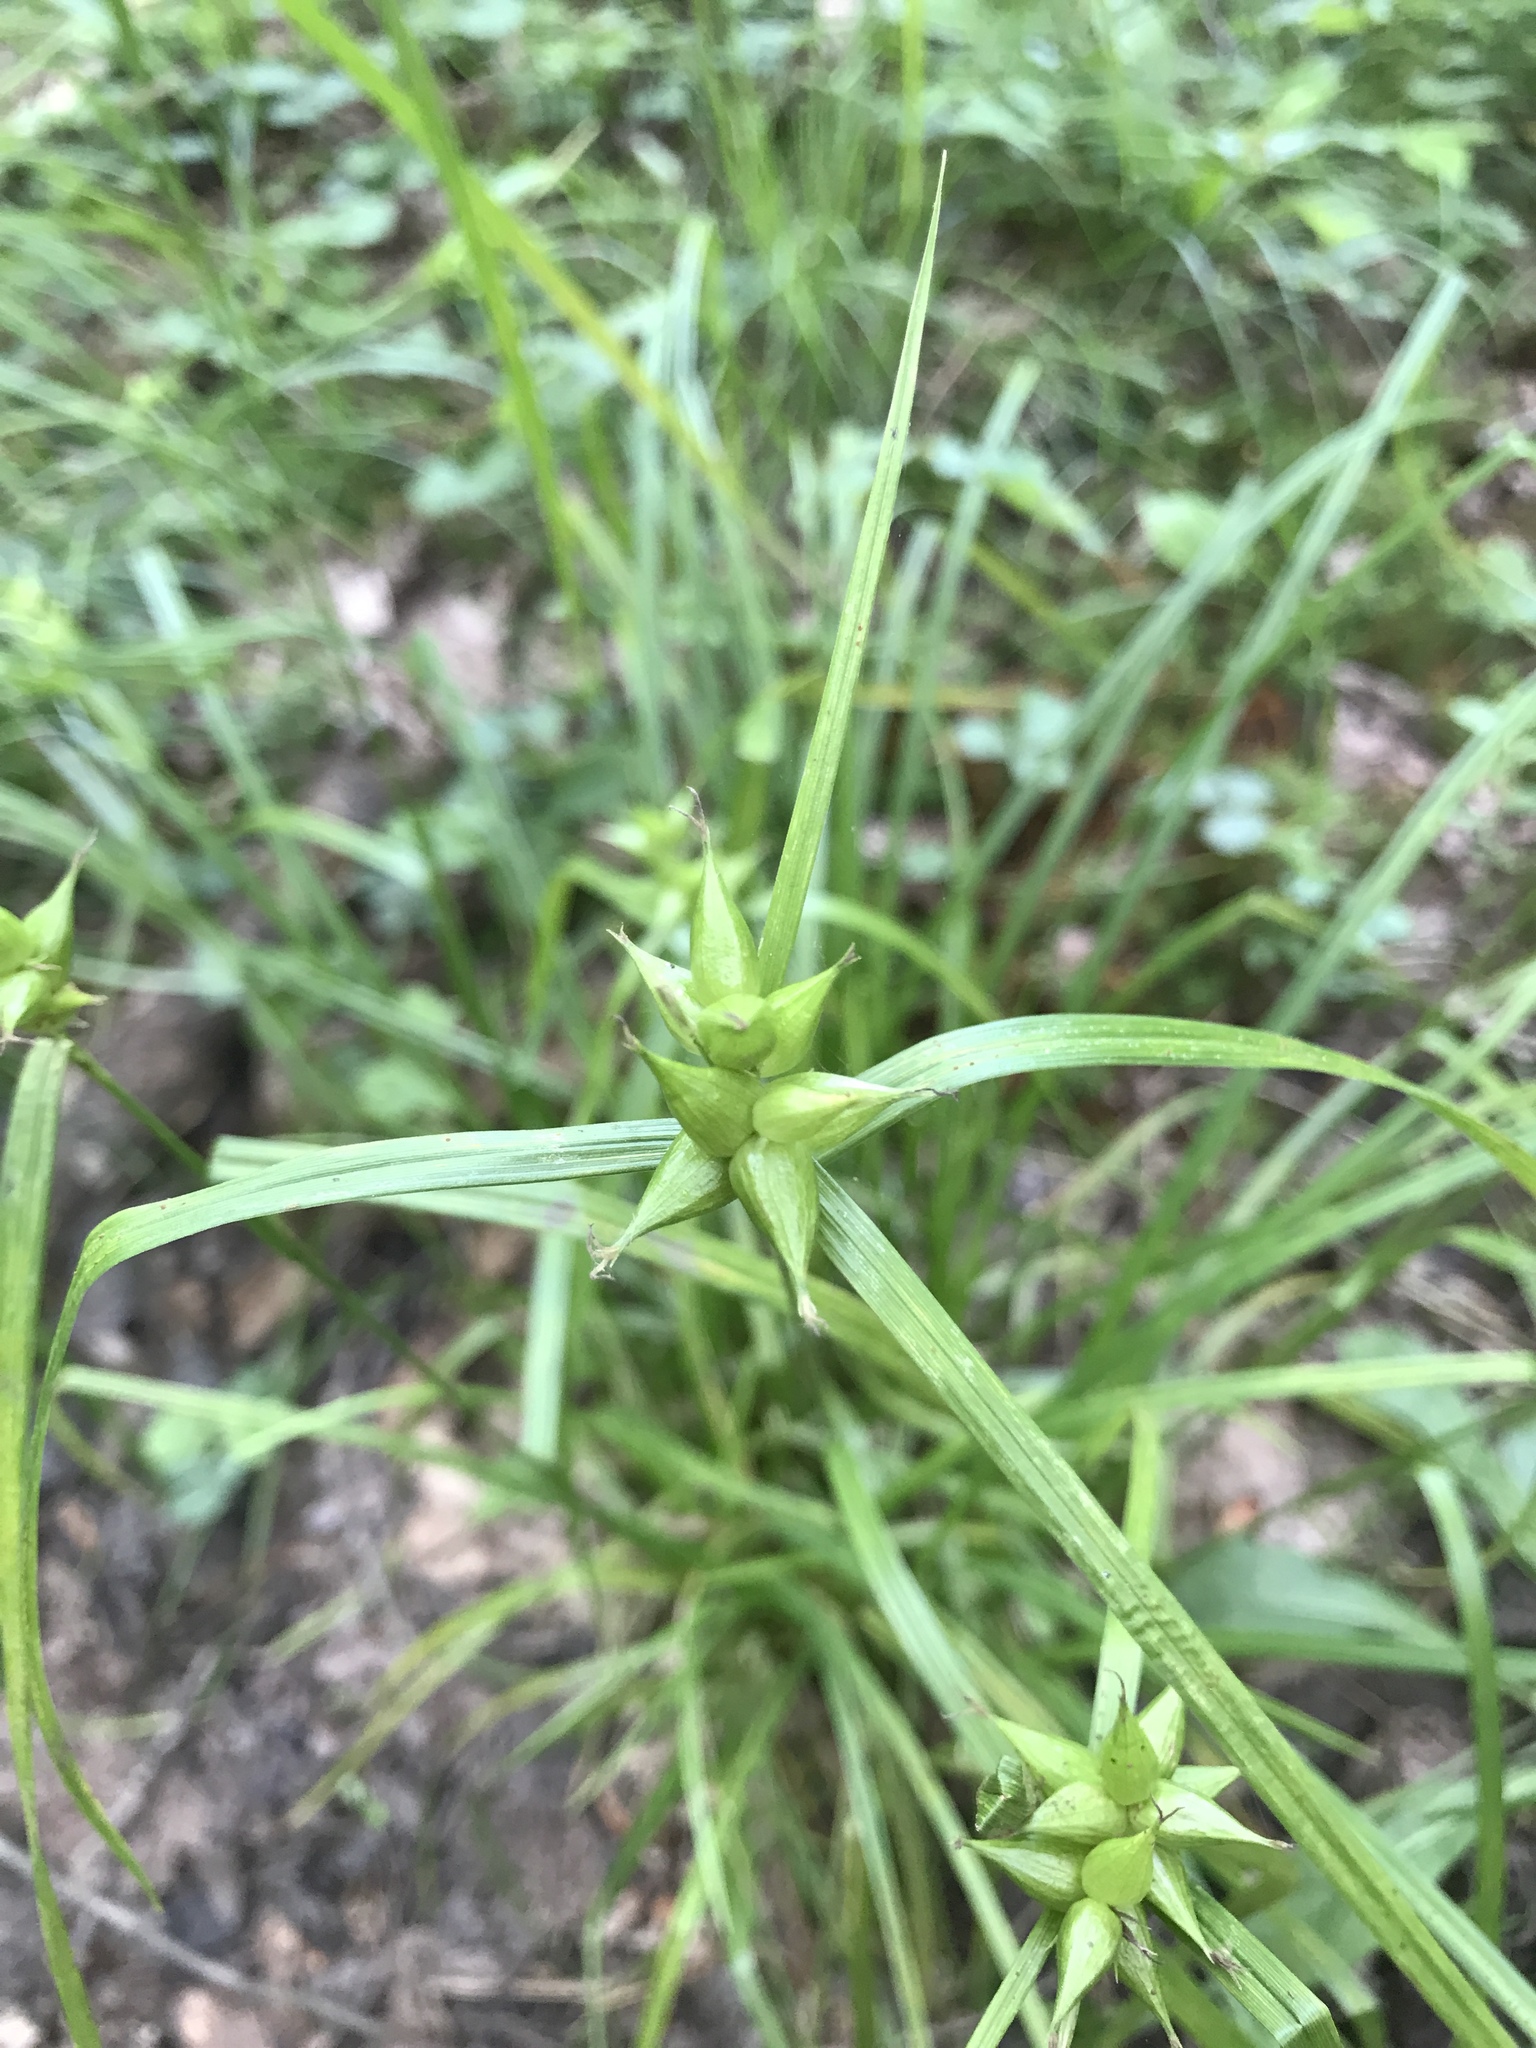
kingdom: Plantae
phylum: Tracheophyta
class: Liliopsida
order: Poales
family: Cyperaceae
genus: Carex
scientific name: Carex intumescens
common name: Greater bladder sedge
